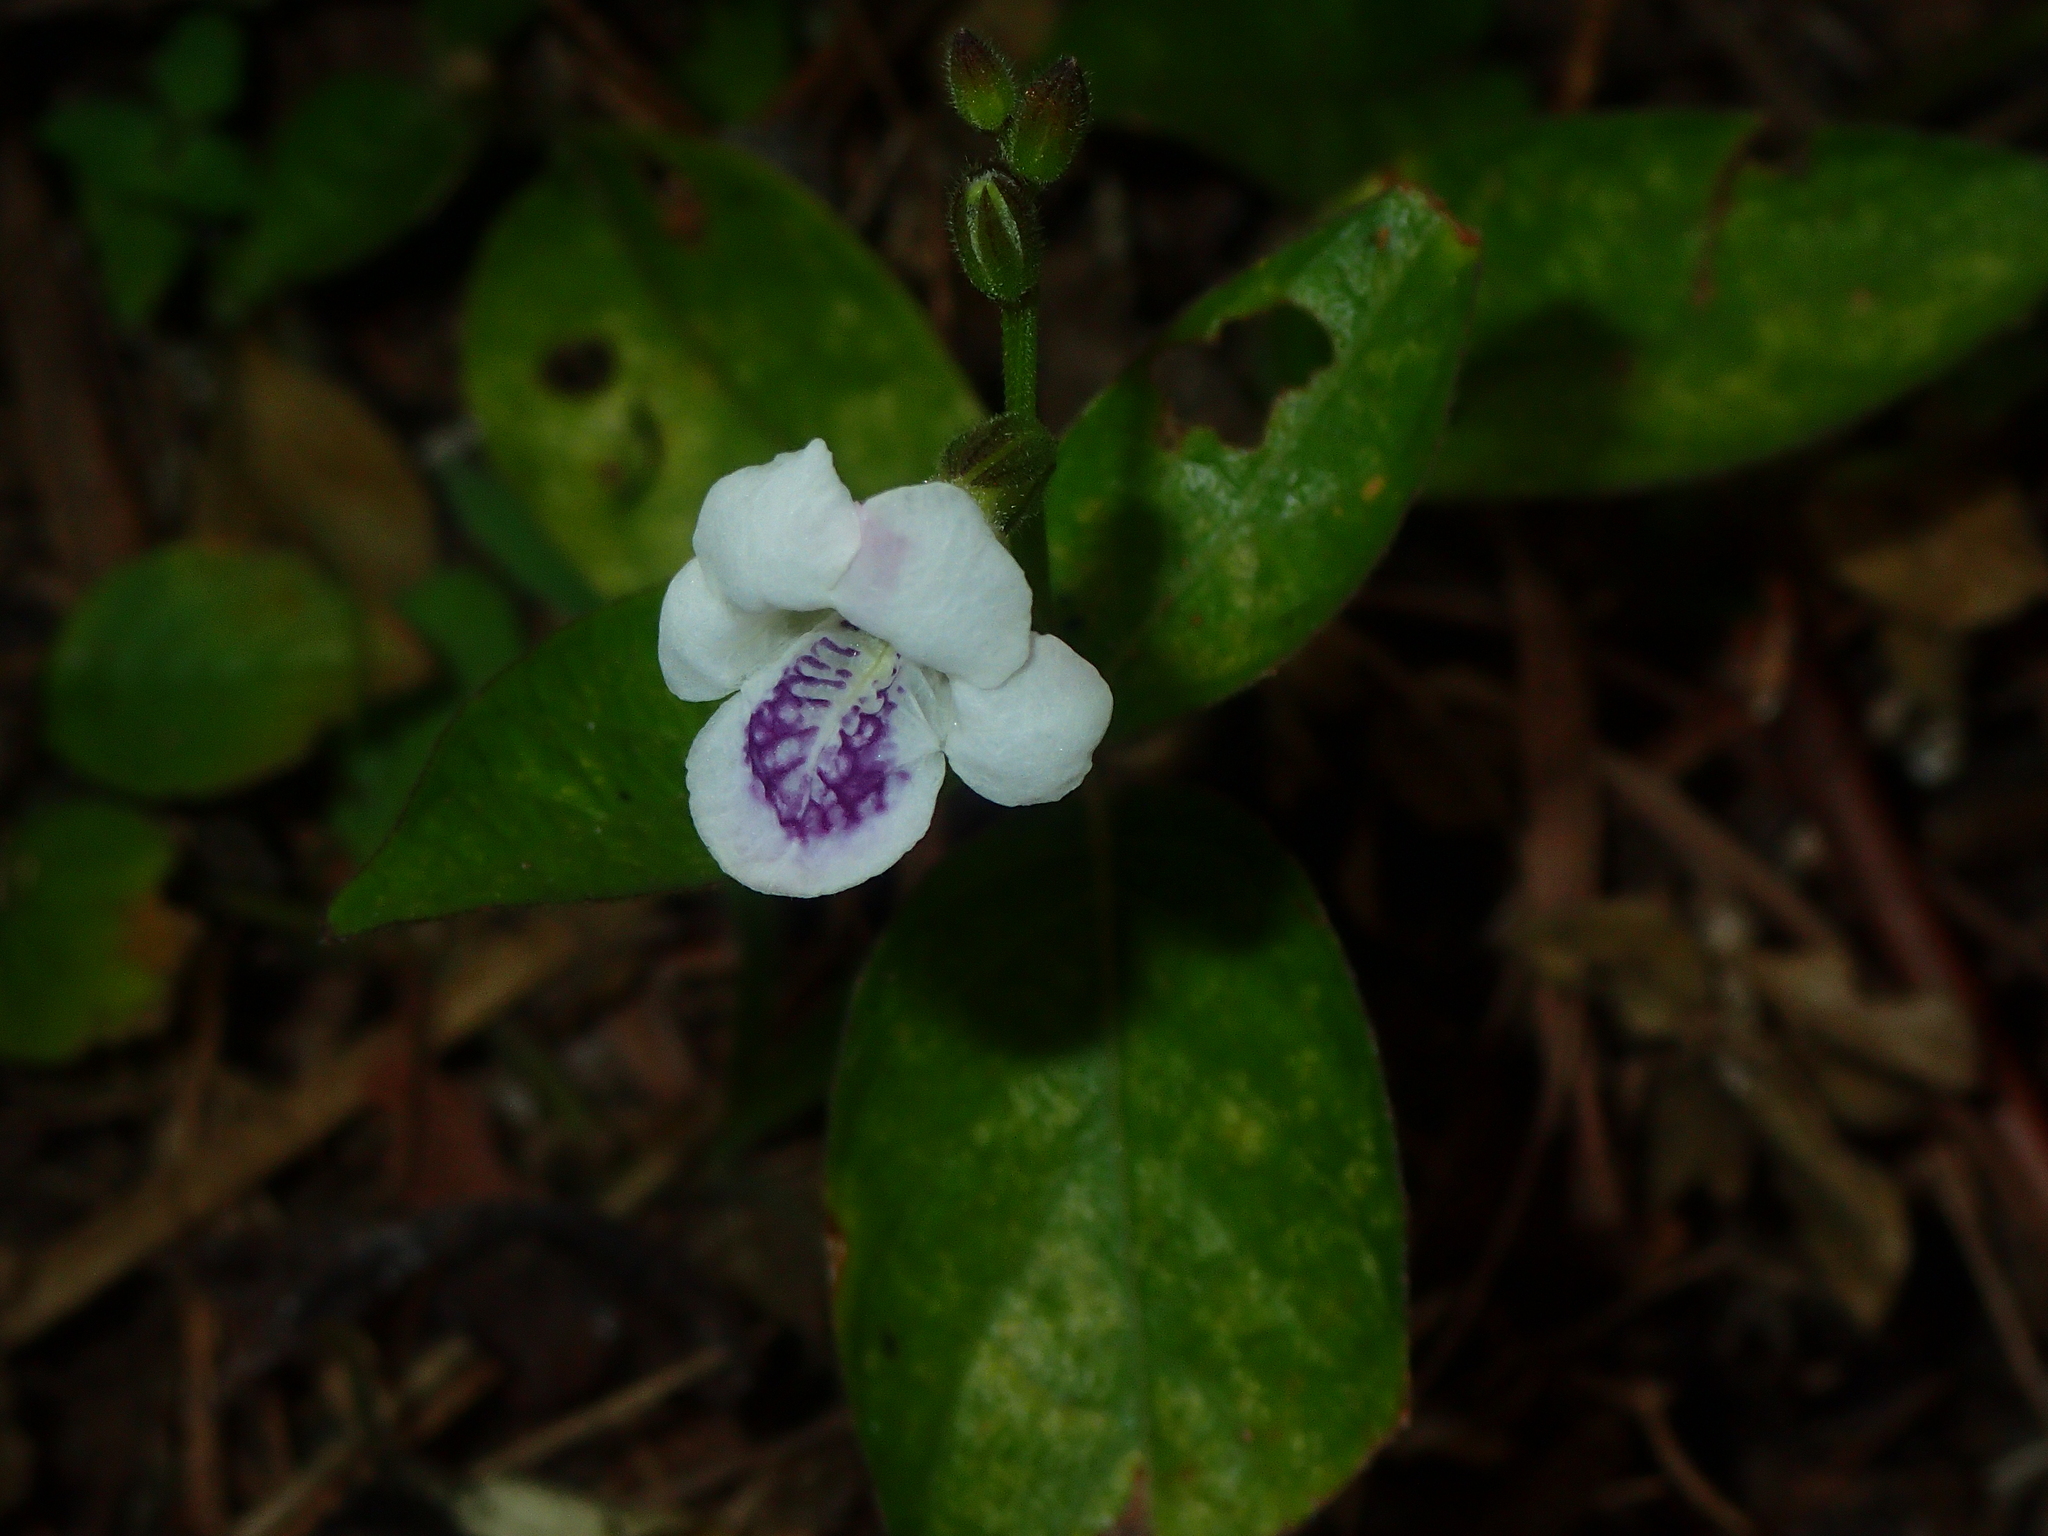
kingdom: Plantae
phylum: Tracheophyta
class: Magnoliopsida
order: Lamiales
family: Acanthaceae
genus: Asystasia
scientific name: Asystasia intrusa
